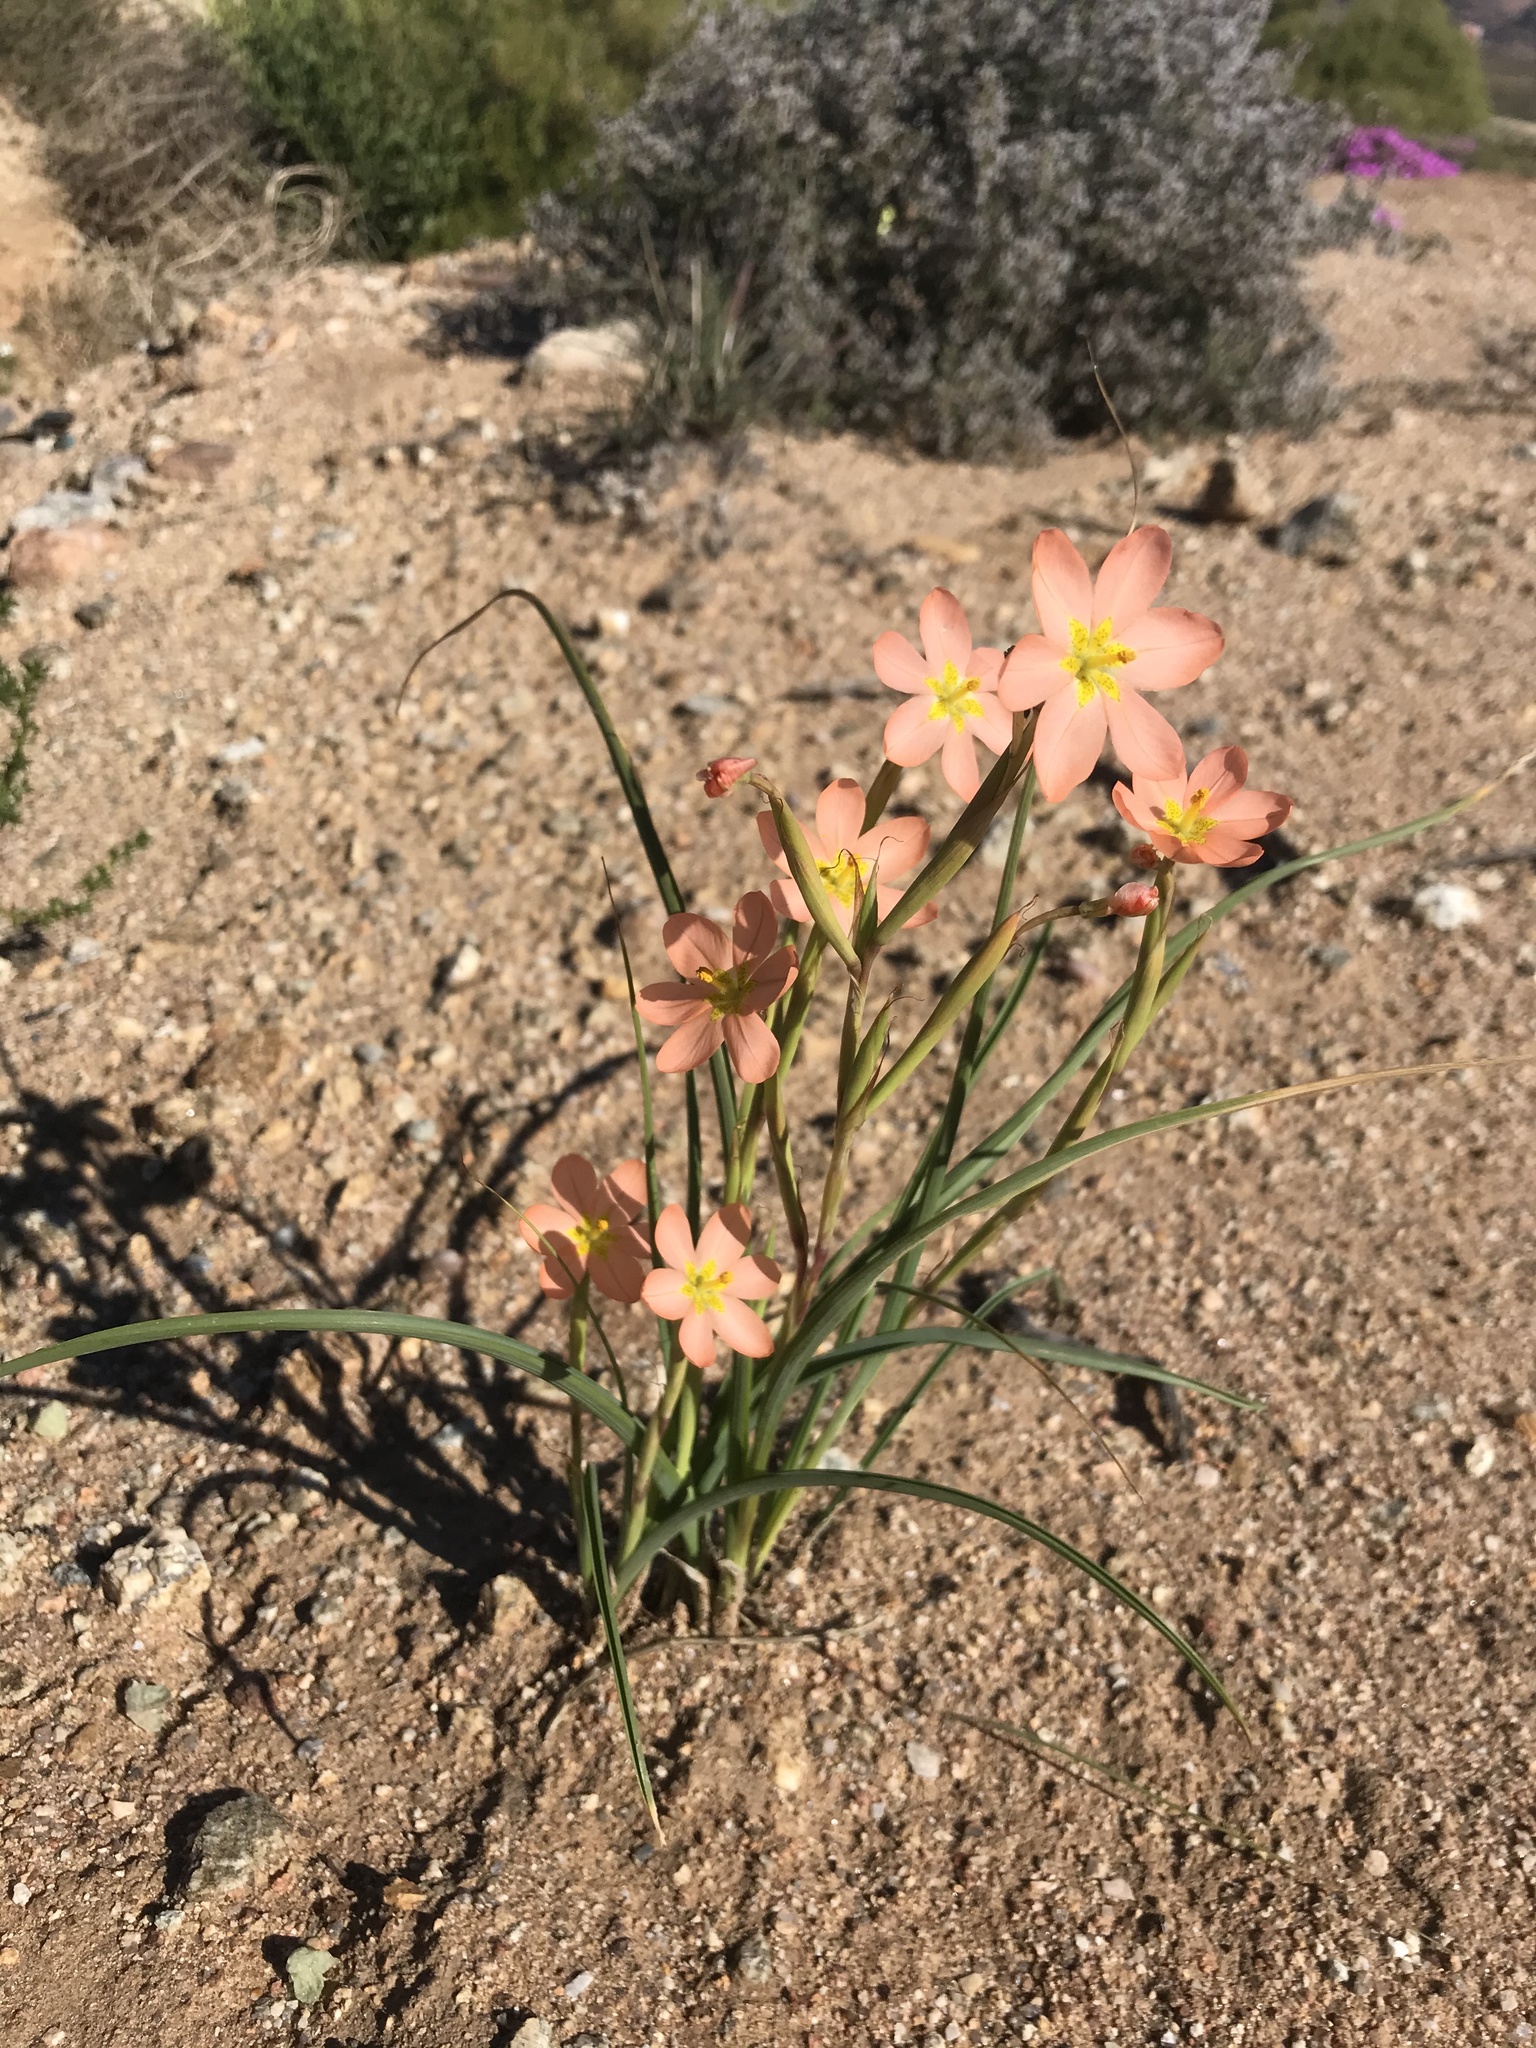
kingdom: Plantae
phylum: Tracheophyta
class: Liliopsida
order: Asparagales
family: Iridaceae
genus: Moraea
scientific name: Moraea miniata
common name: Two-leaf cape-tulip
